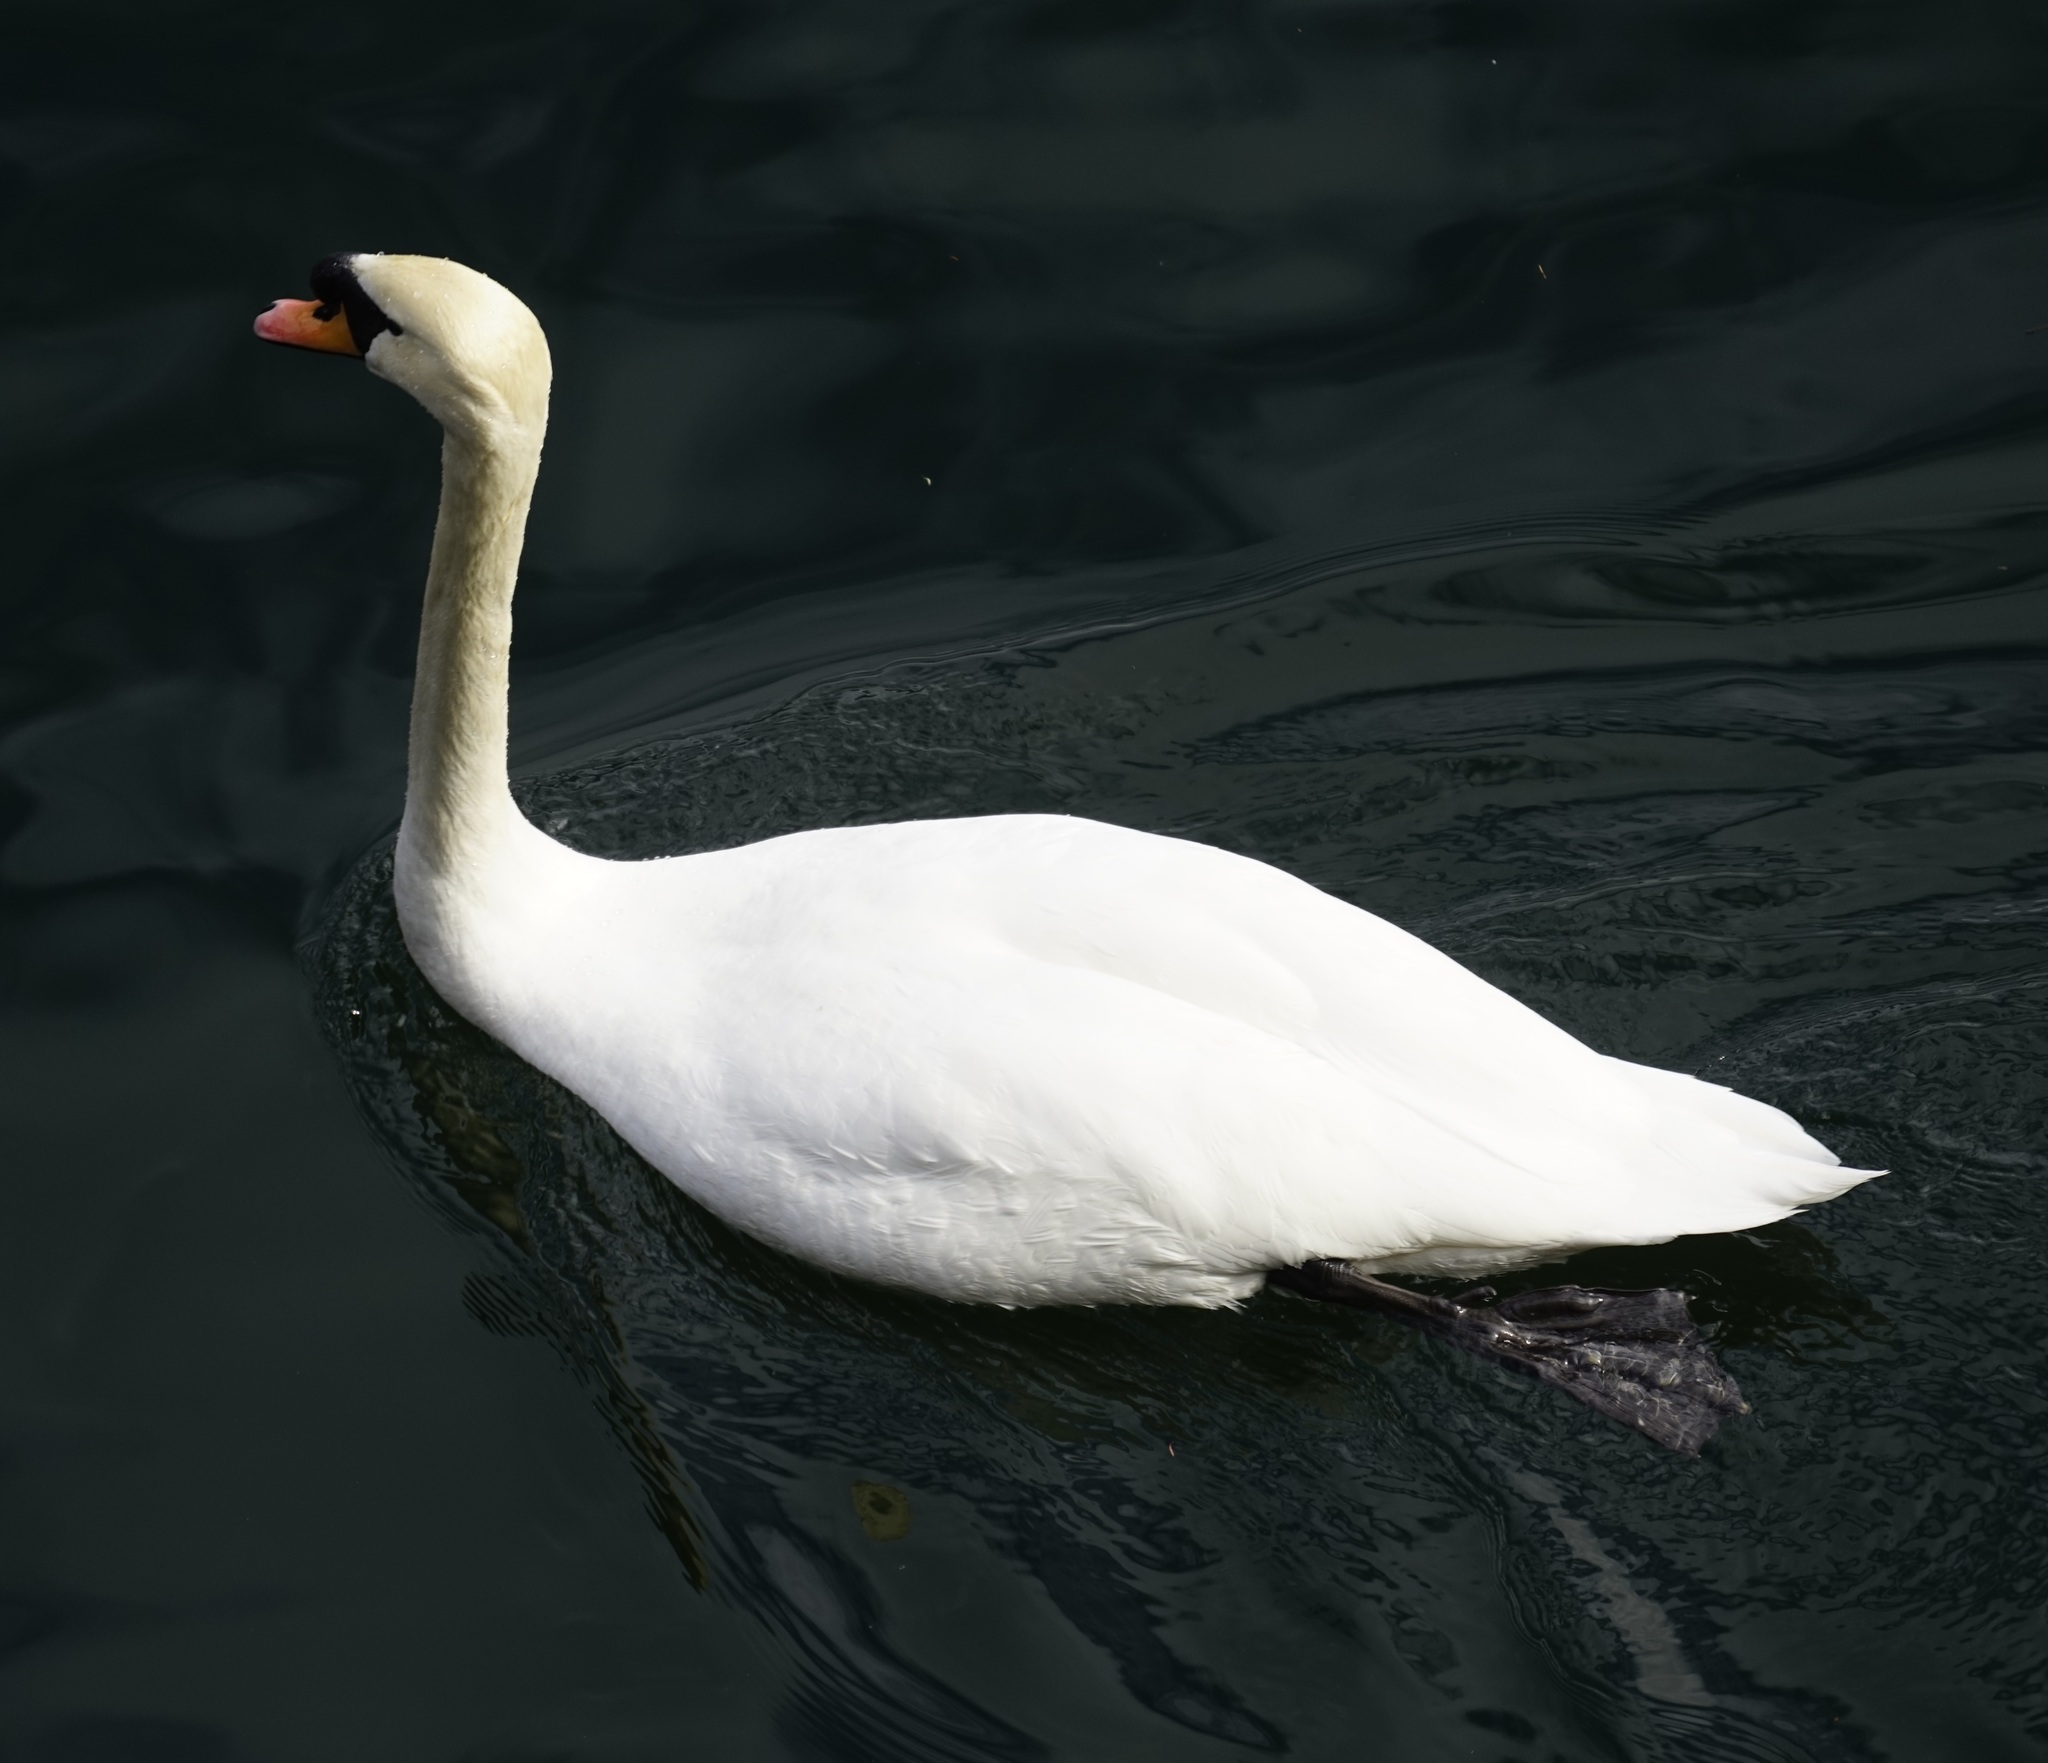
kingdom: Animalia
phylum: Chordata
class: Aves
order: Anseriformes
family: Anatidae
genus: Cygnus
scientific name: Cygnus olor
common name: Mute swan
